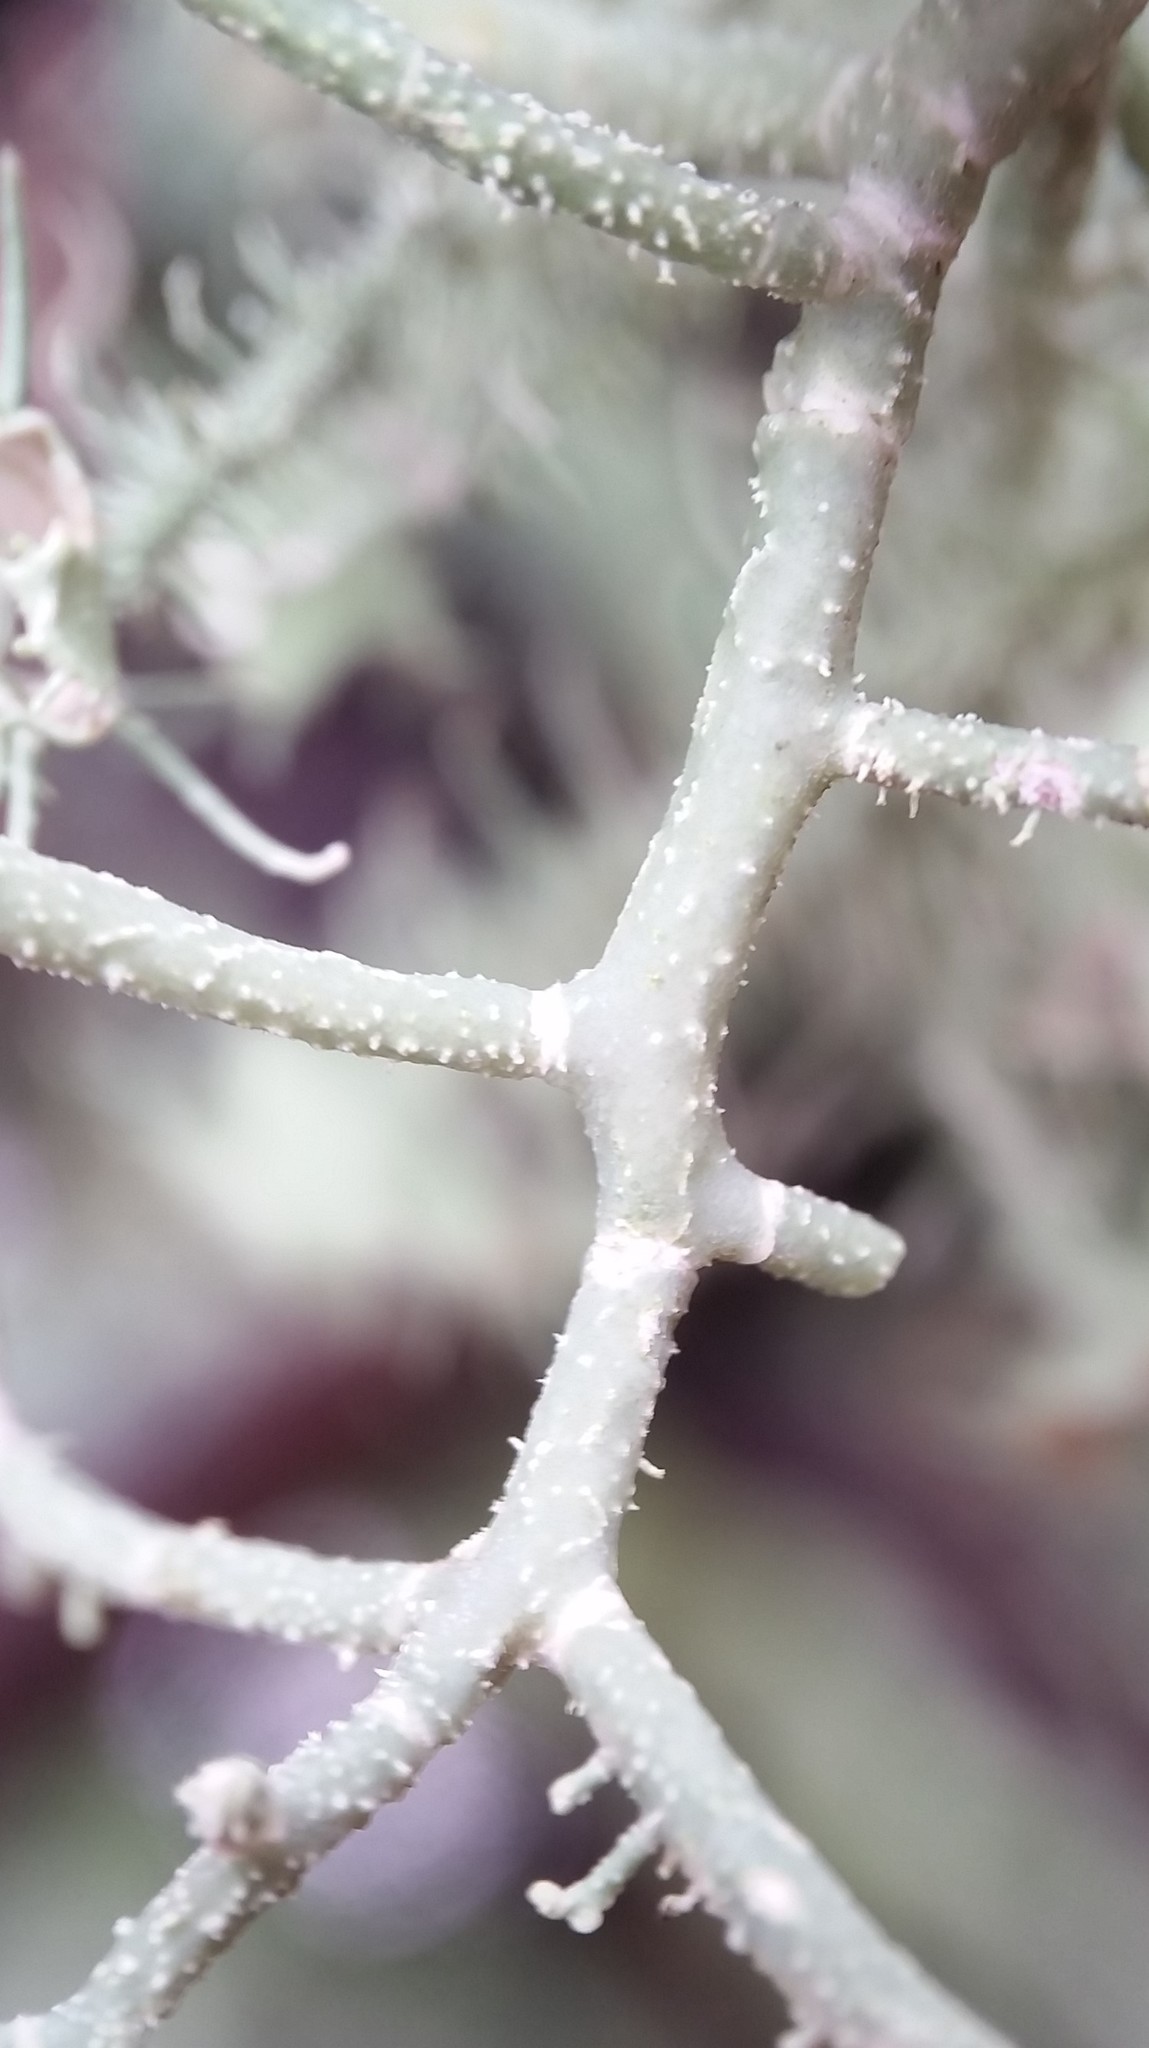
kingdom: Fungi
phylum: Ascomycota
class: Lecanoromycetes
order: Lecanorales
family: Parmeliaceae
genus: Usnea
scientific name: Usnea strigosa
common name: Bushy beard lichen
